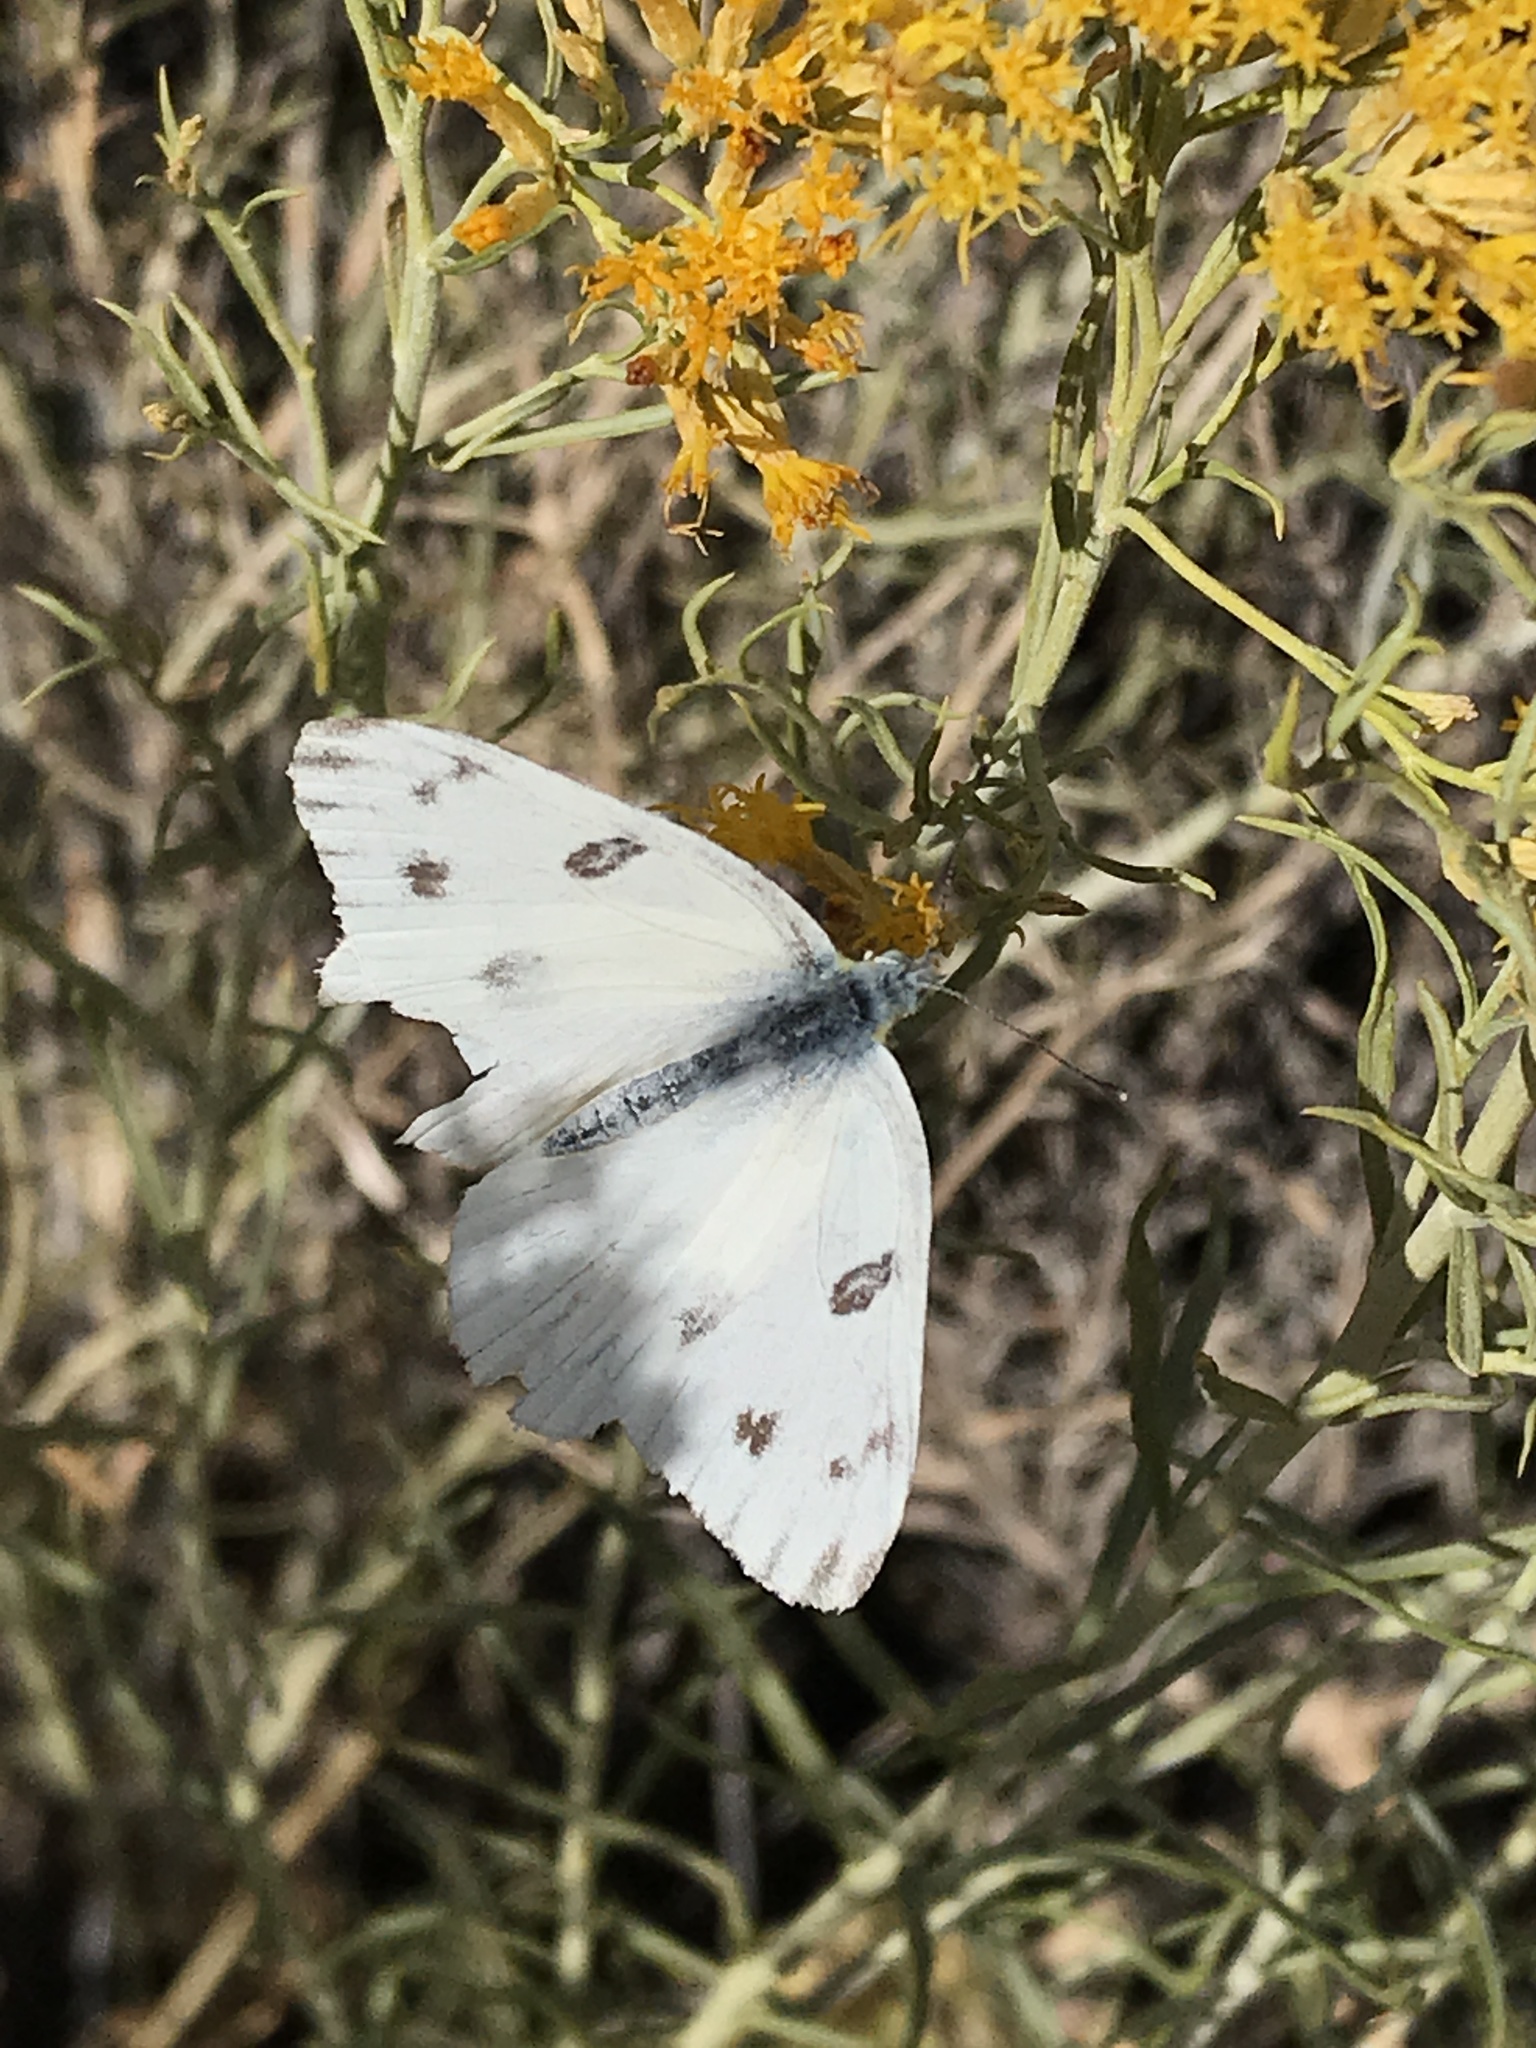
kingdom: Animalia
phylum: Arthropoda
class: Insecta
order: Lepidoptera
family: Pieridae
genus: Pontia
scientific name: Pontia protodice
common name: Checkered white
